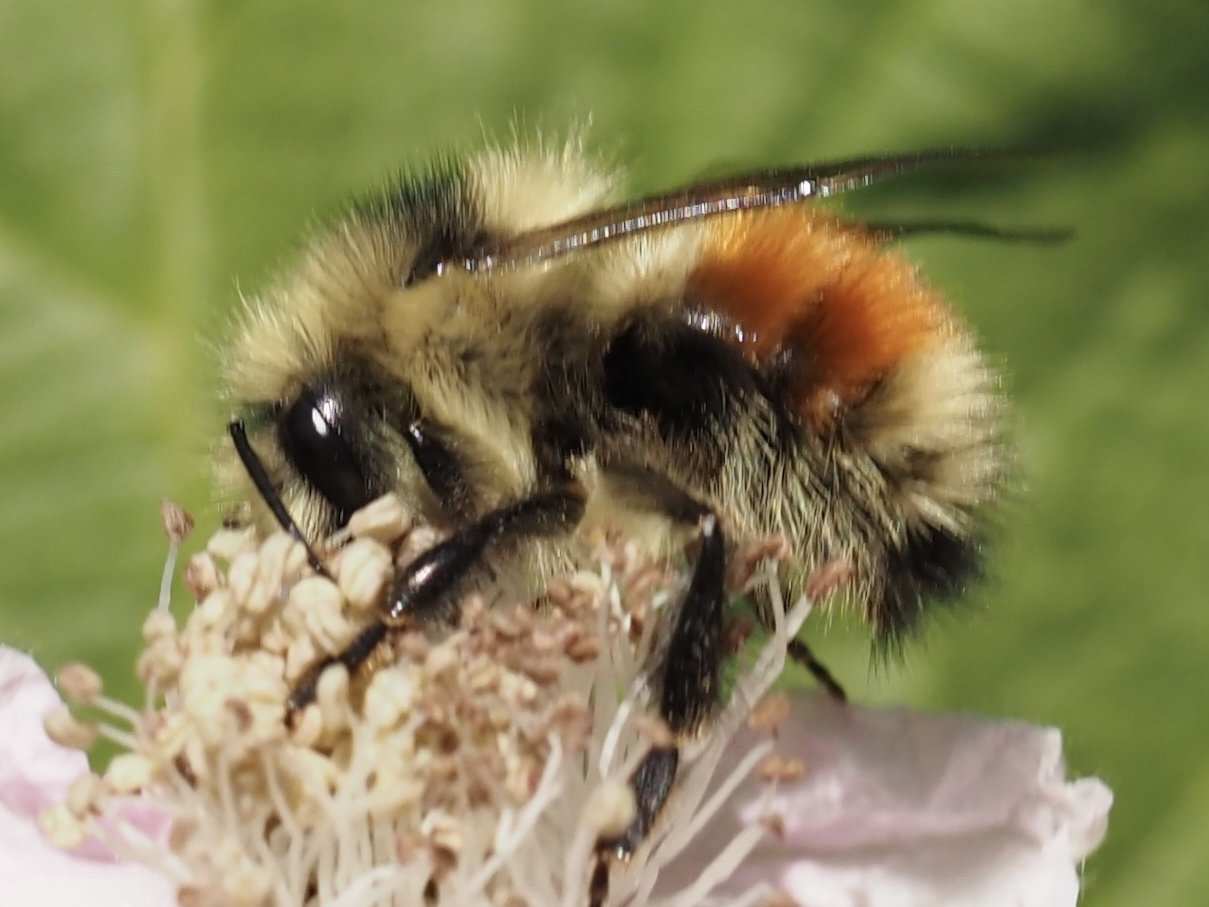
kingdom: Animalia
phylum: Arthropoda
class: Insecta
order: Hymenoptera
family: Apidae
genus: Bombus
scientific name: Bombus melanopygus
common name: Black tail bumble bee
